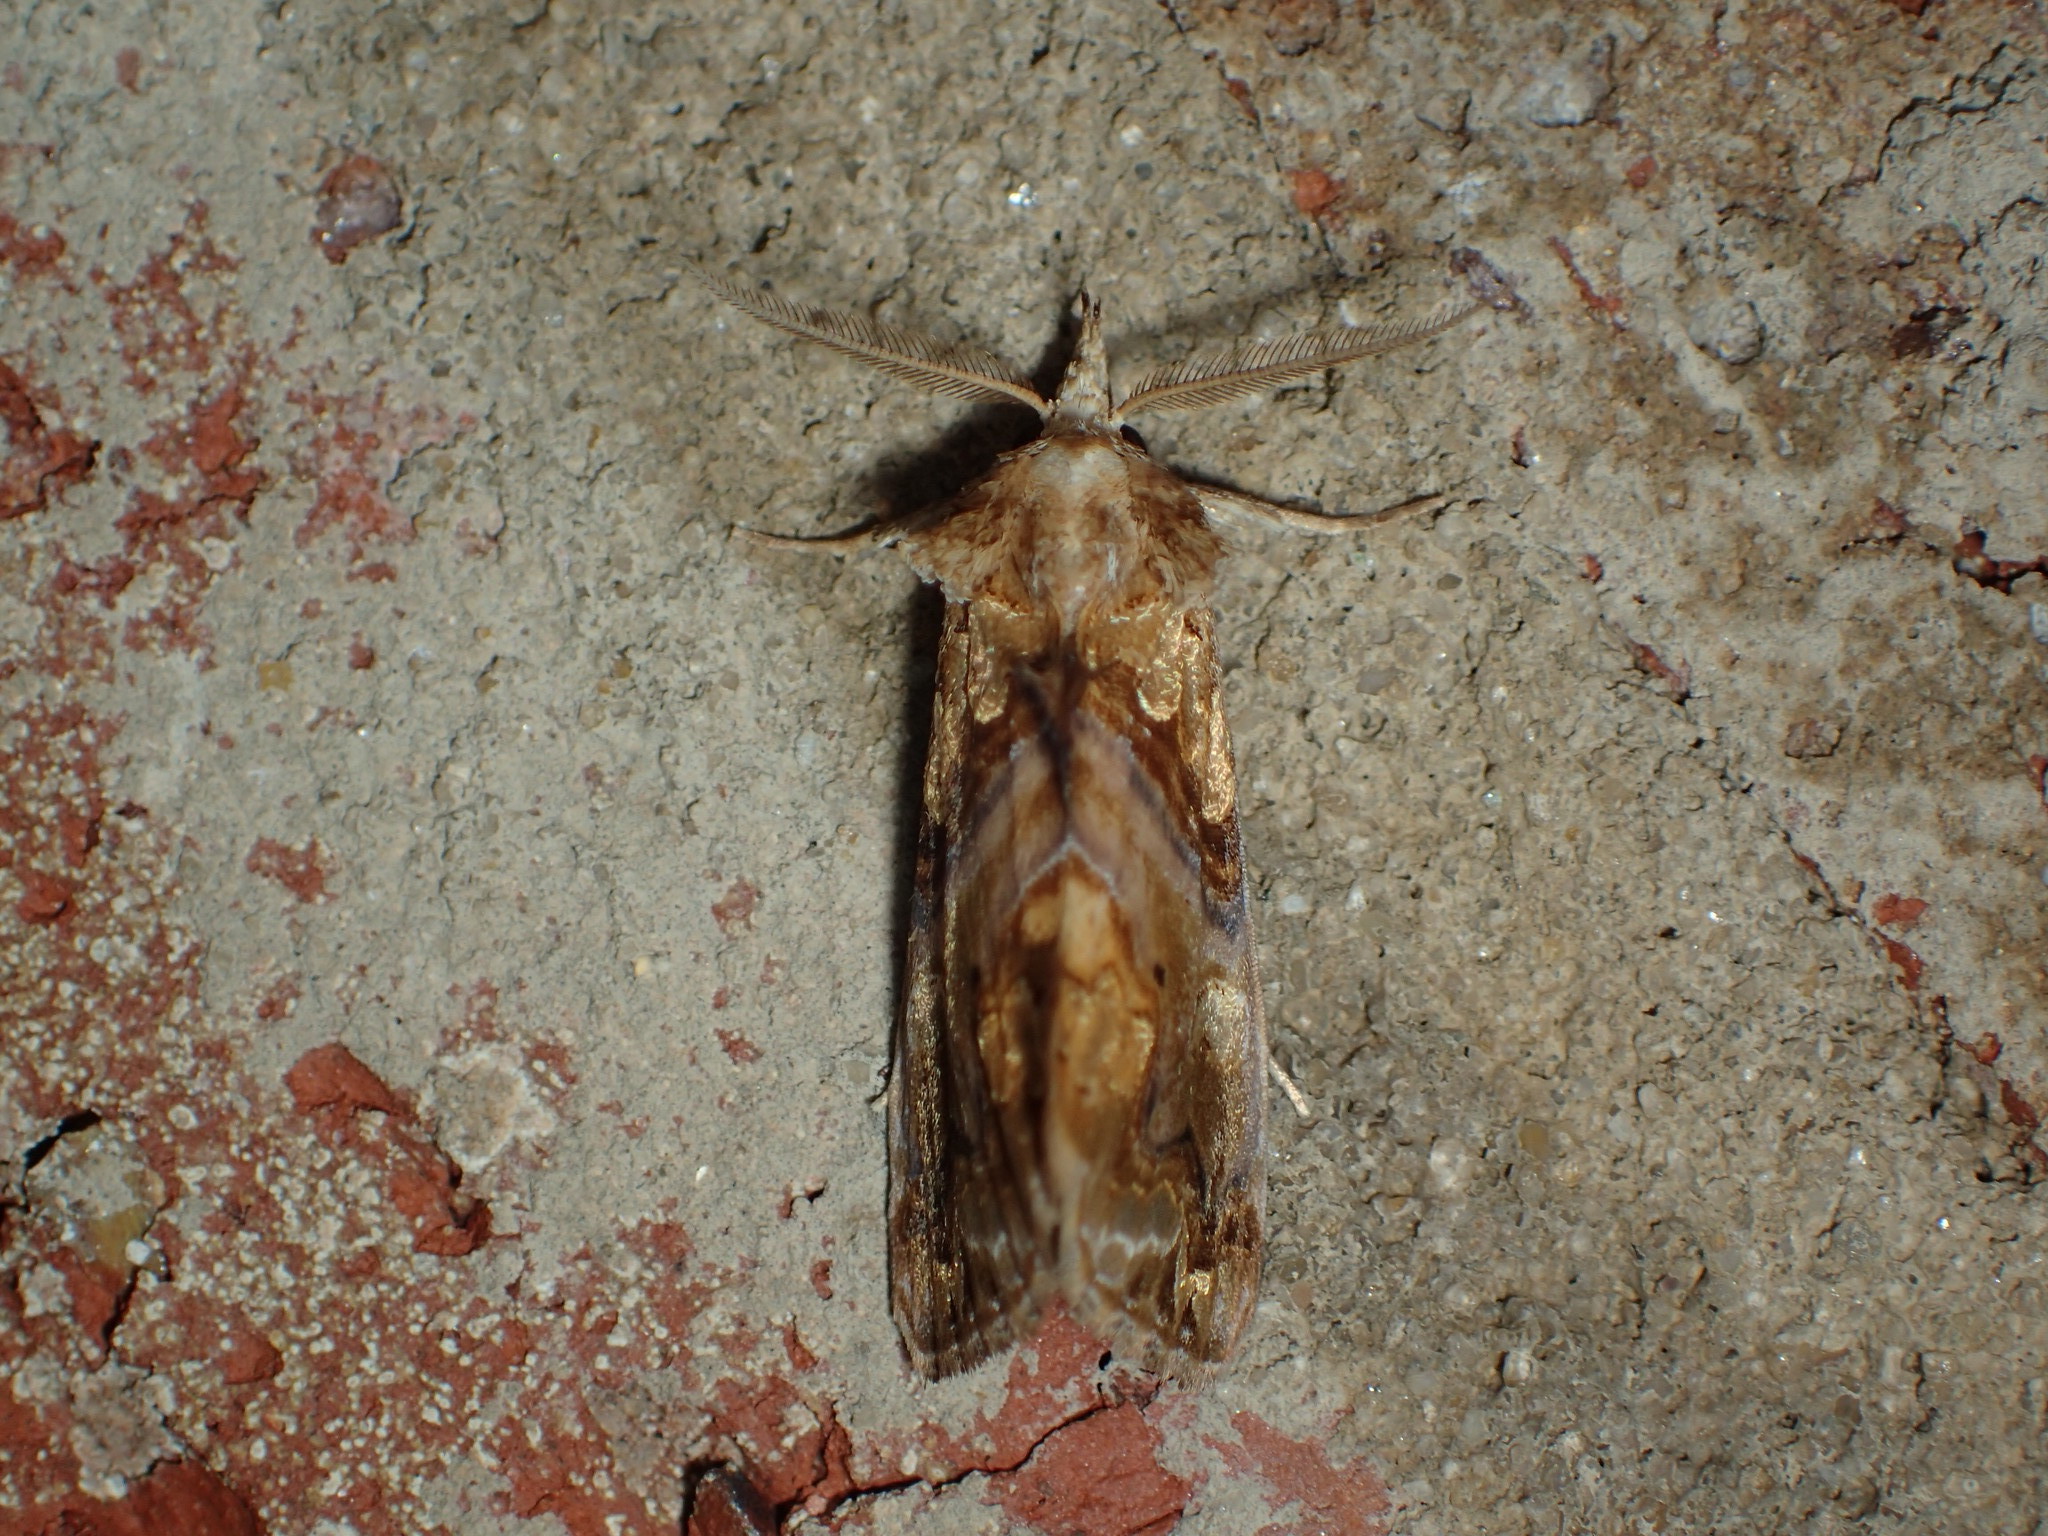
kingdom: Animalia
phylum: Arthropoda
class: Insecta
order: Lepidoptera
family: Erebidae
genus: Plusiodonta
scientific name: Plusiodonta compressipalpis
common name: Moonseed moth
